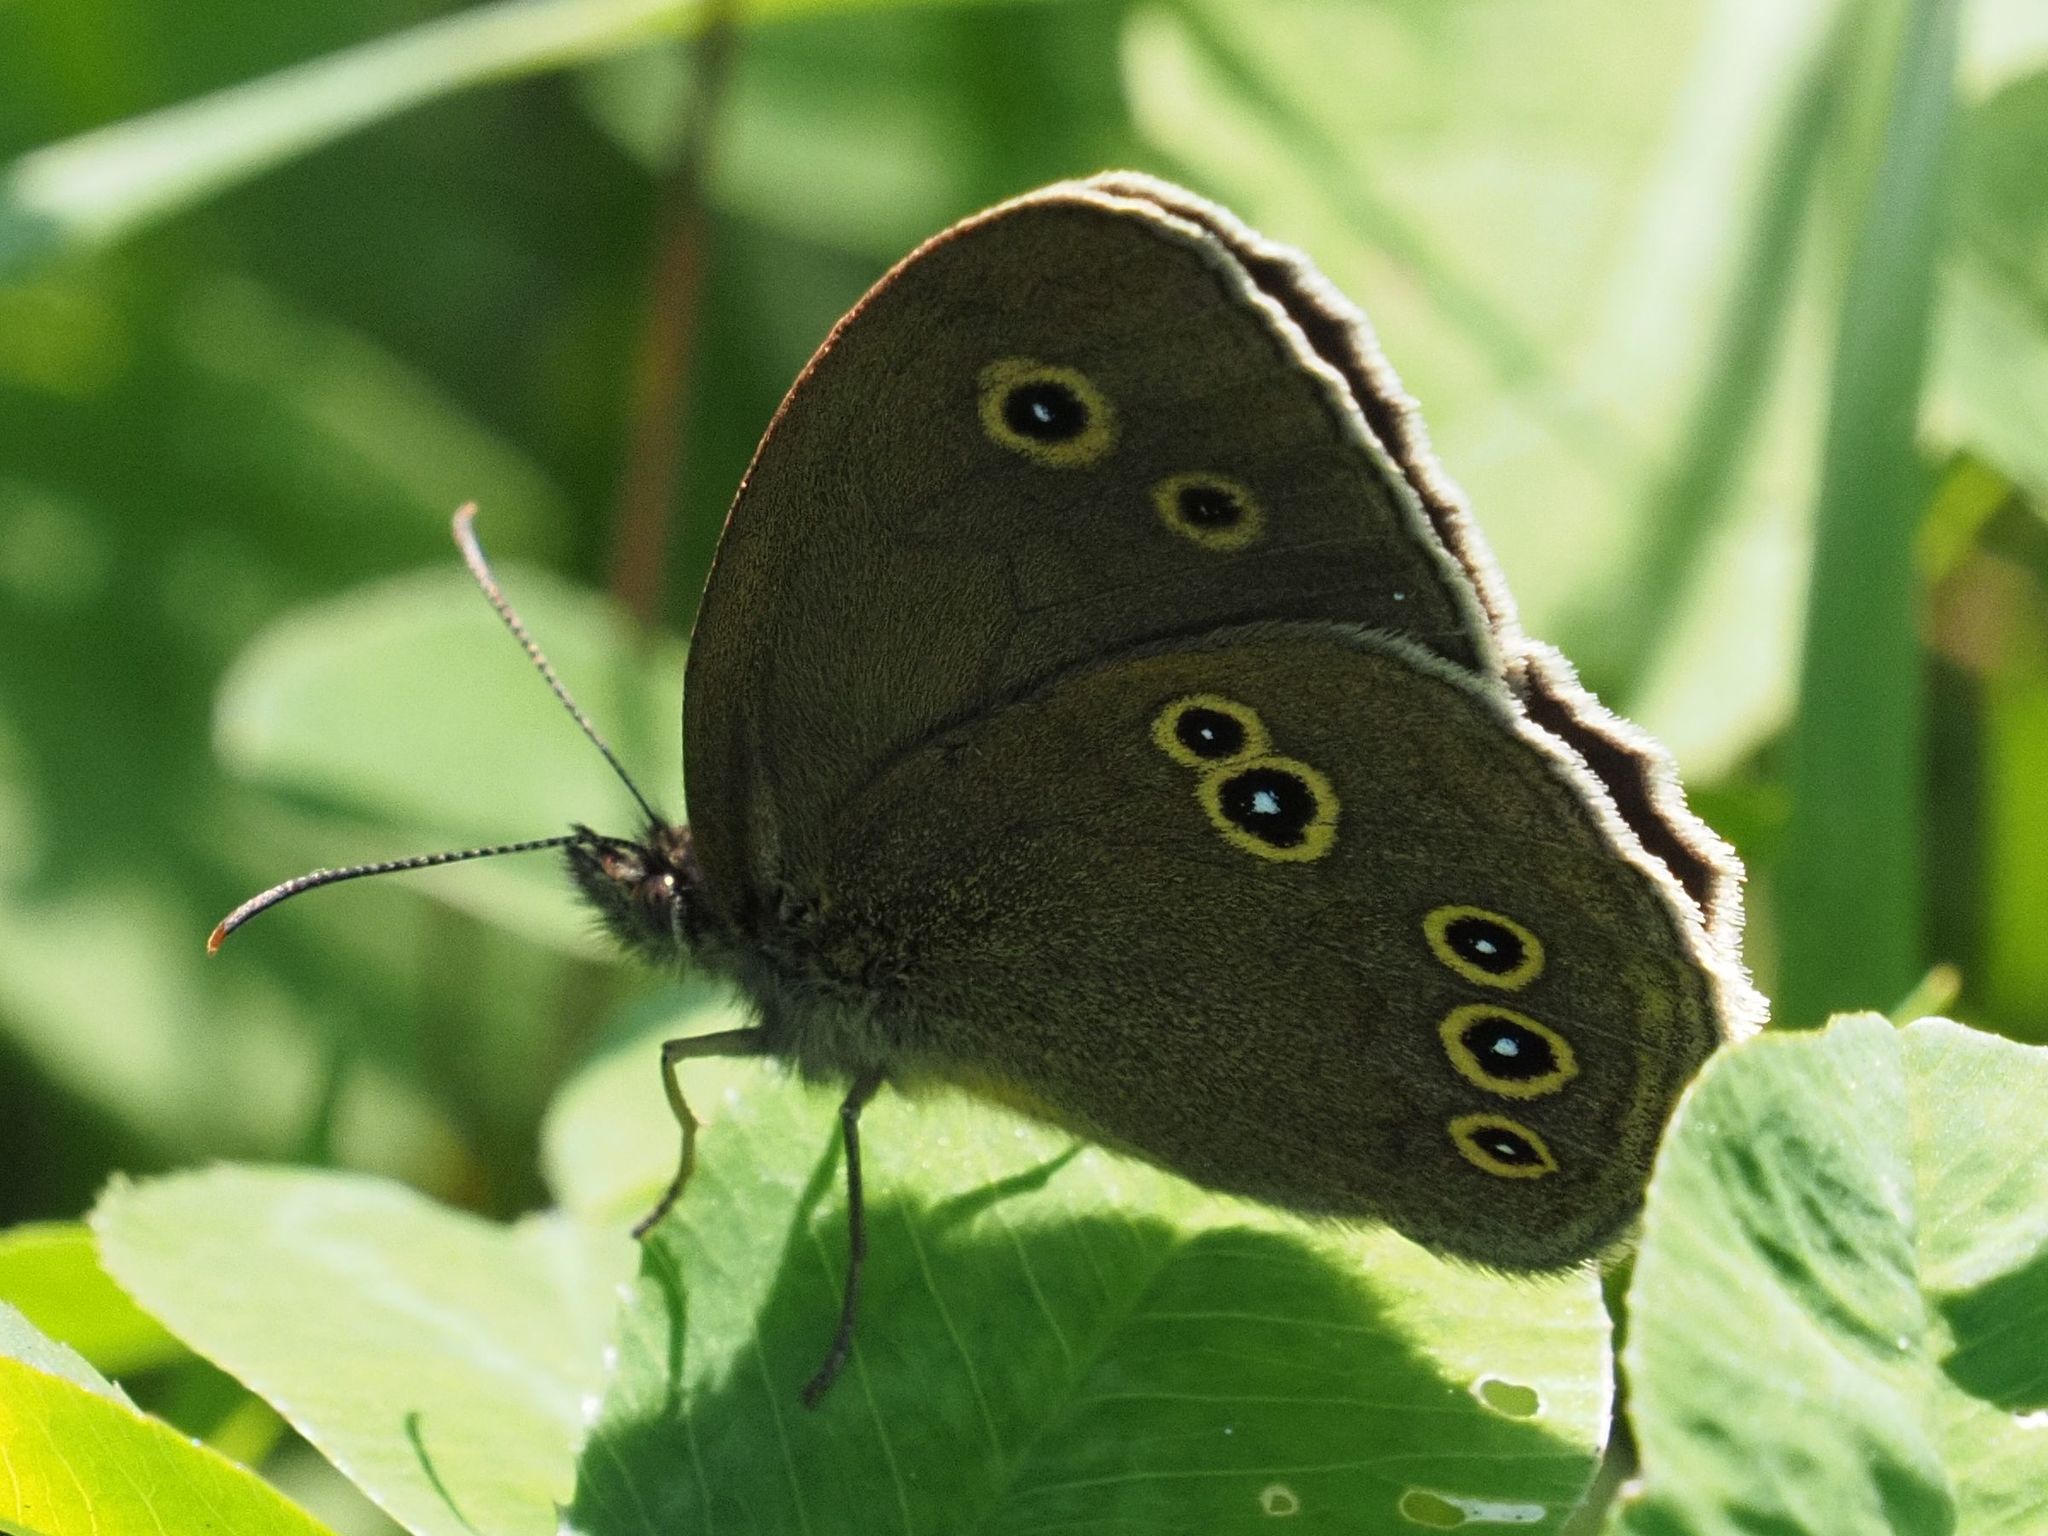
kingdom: Animalia
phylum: Arthropoda
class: Insecta
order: Lepidoptera
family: Nymphalidae
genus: Aphantopus
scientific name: Aphantopus hyperantus
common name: Ringlet
